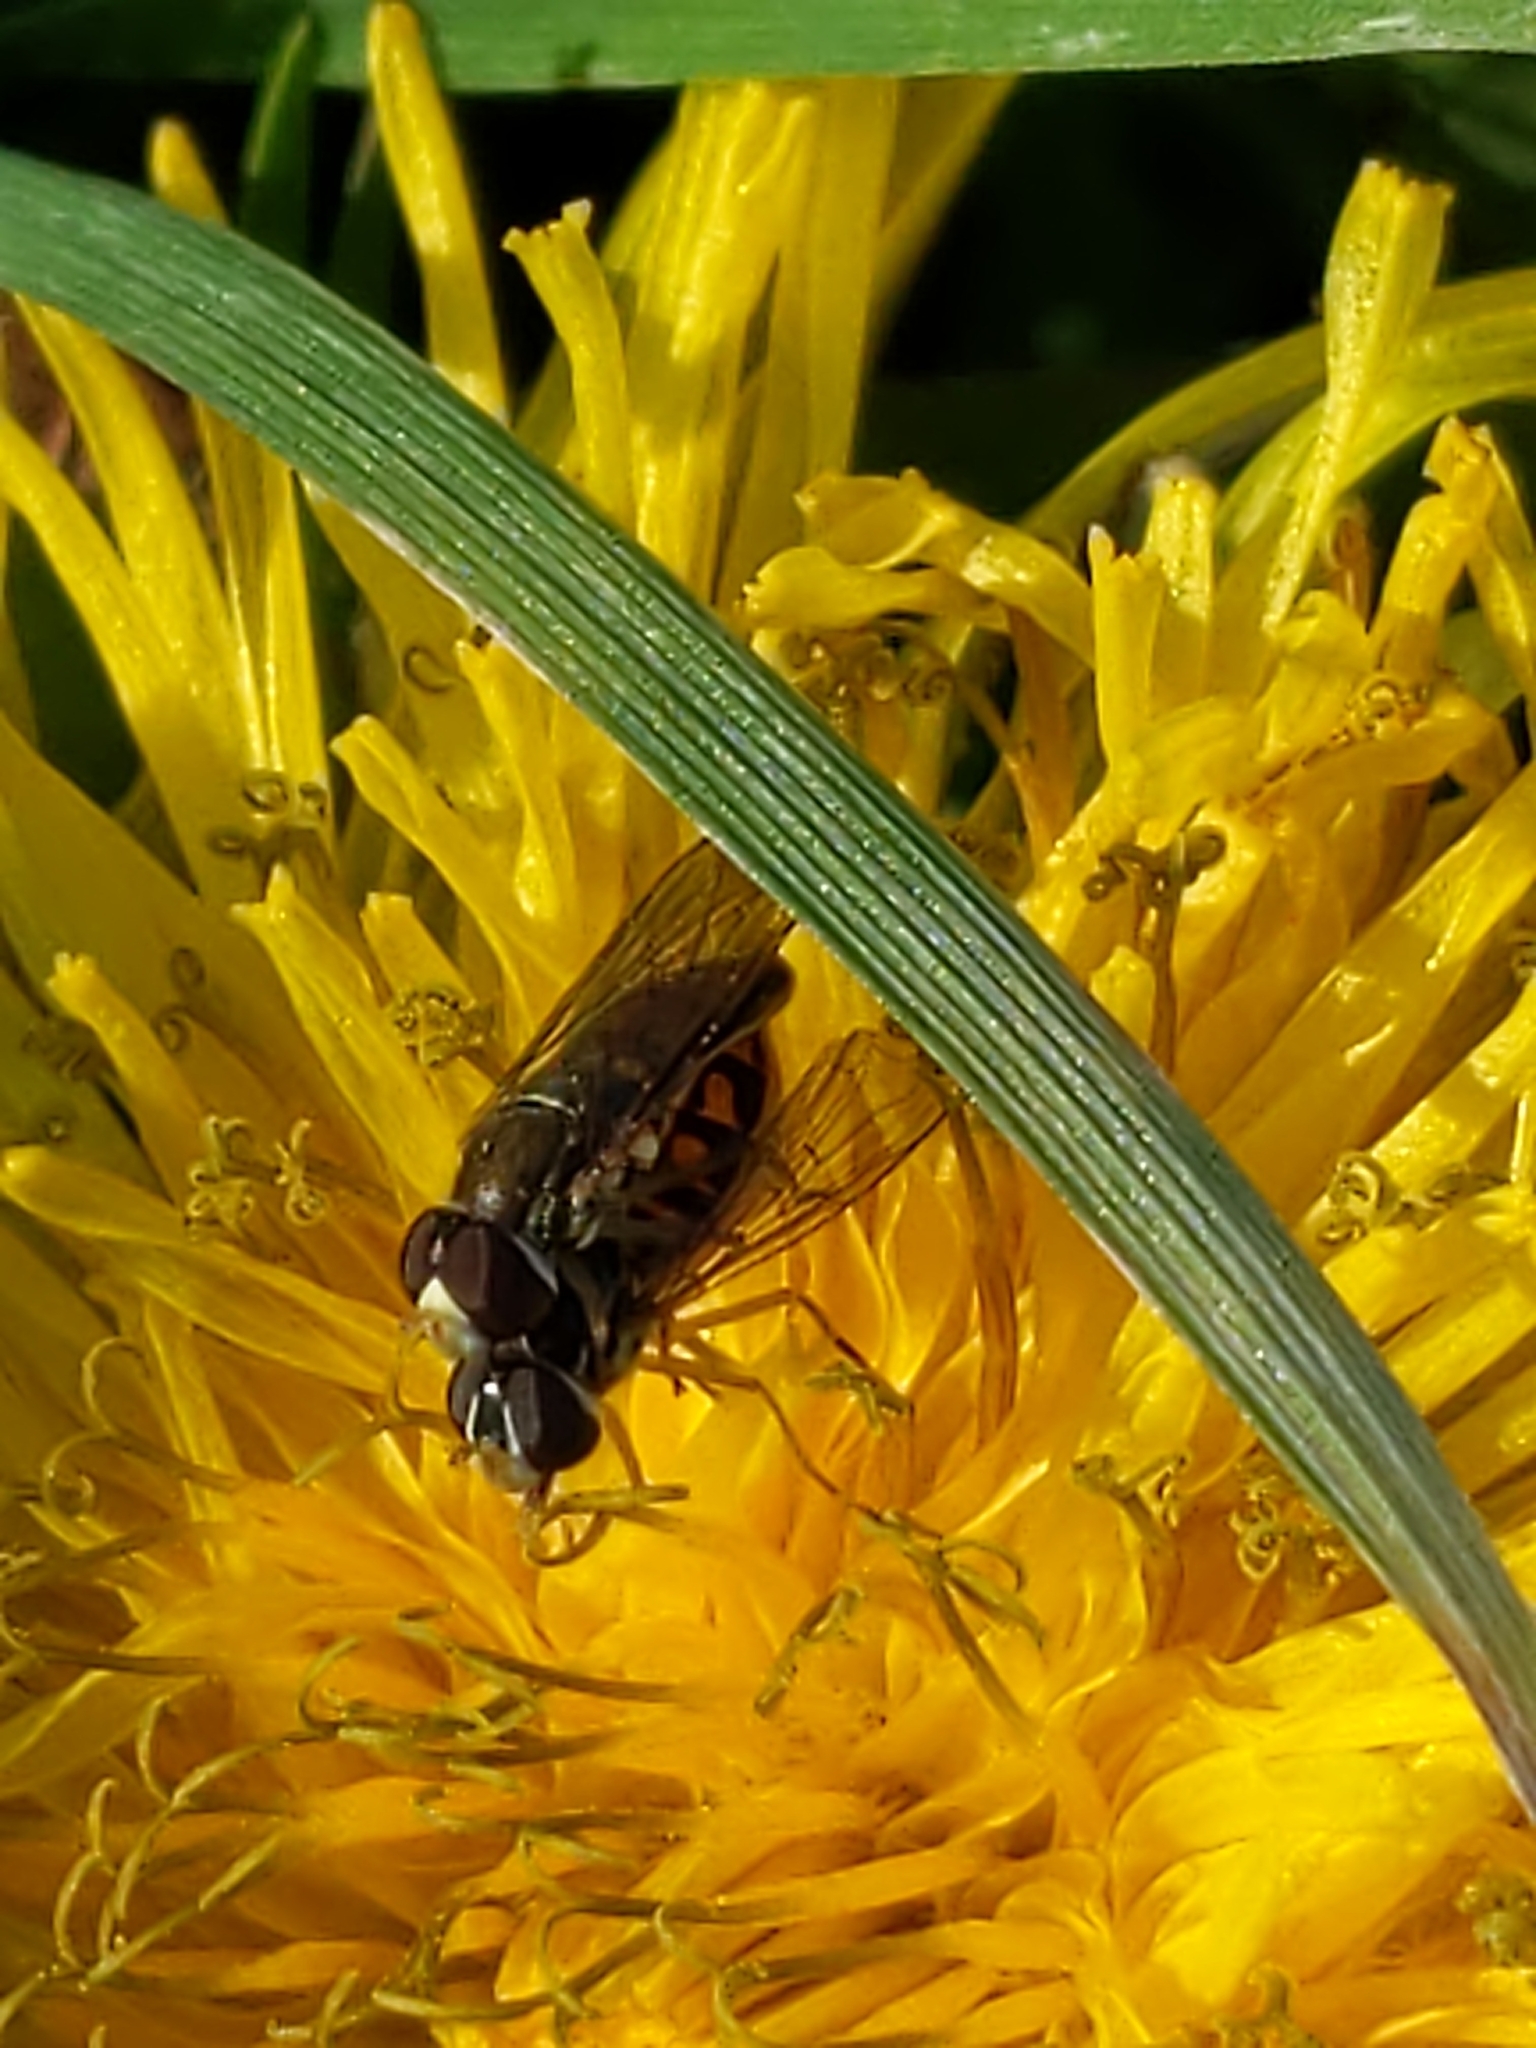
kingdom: Animalia
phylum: Arthropoda
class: Insecta
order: Diptera
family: Syrphidae
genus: Toxomerus
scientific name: Toxomerus marginatus
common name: Syrphid fly
